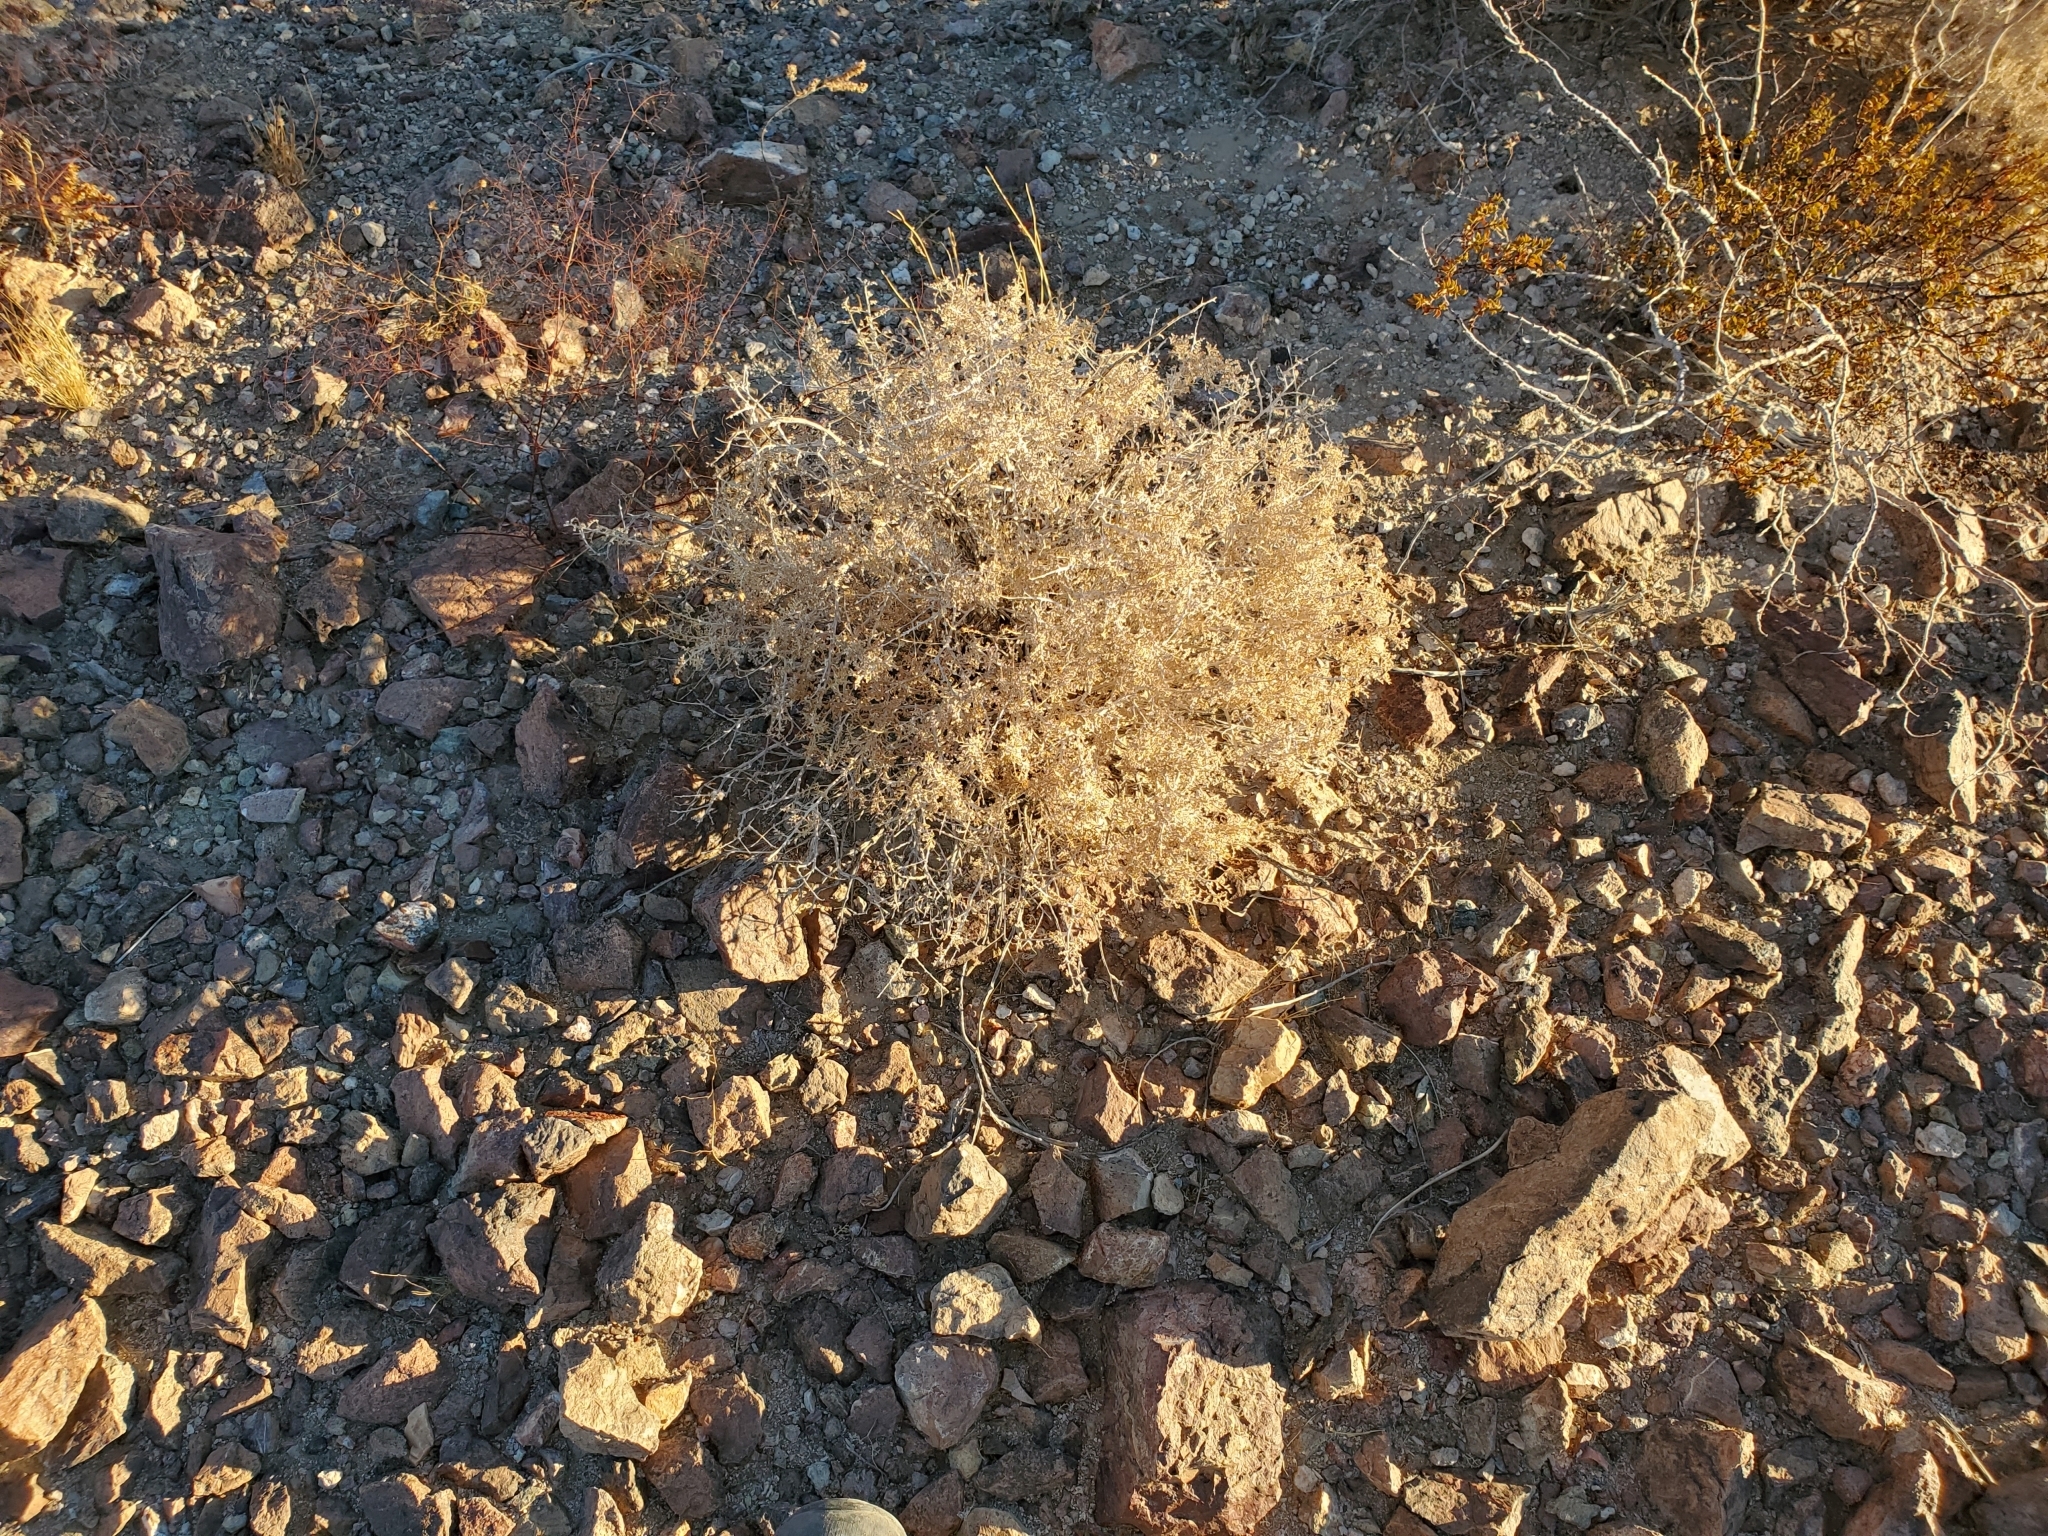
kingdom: Plantae
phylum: Tracheophyta
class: Magnoliopsida
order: Asterales
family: Asteraceae
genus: Ambrosia
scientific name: Ambrosia dumosa
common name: Bur-sage
